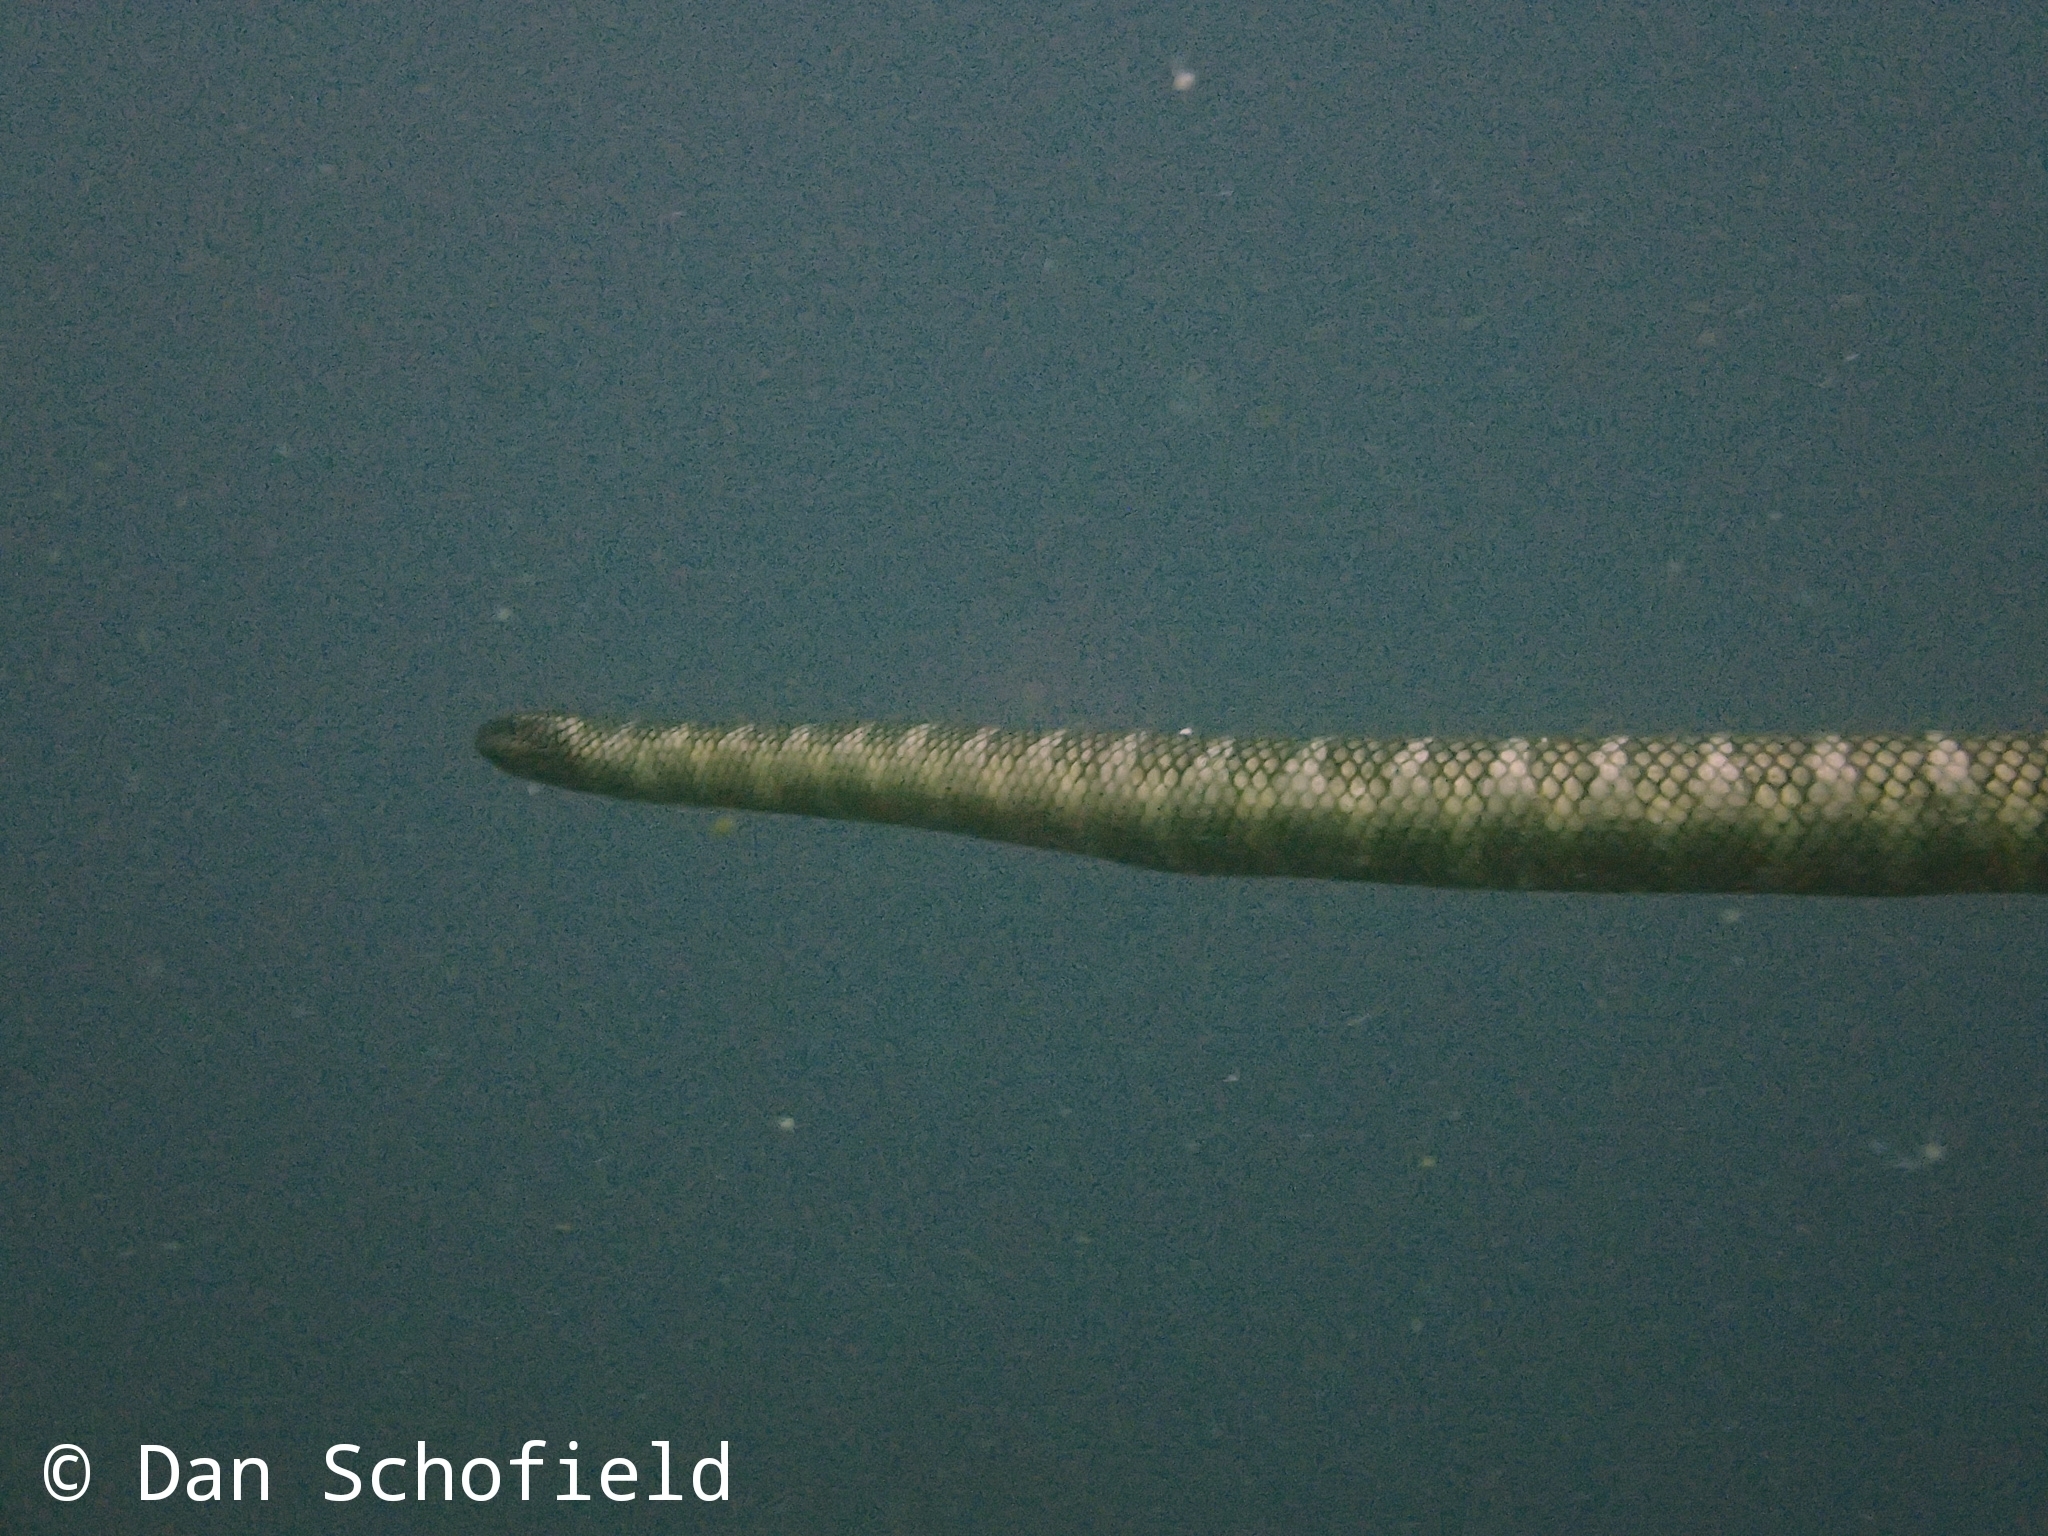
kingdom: Animalia
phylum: Chordata
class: Squamata
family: Elapidae
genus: Laticauda
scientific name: Laticauda semifasciata
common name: Chinese sea snake
